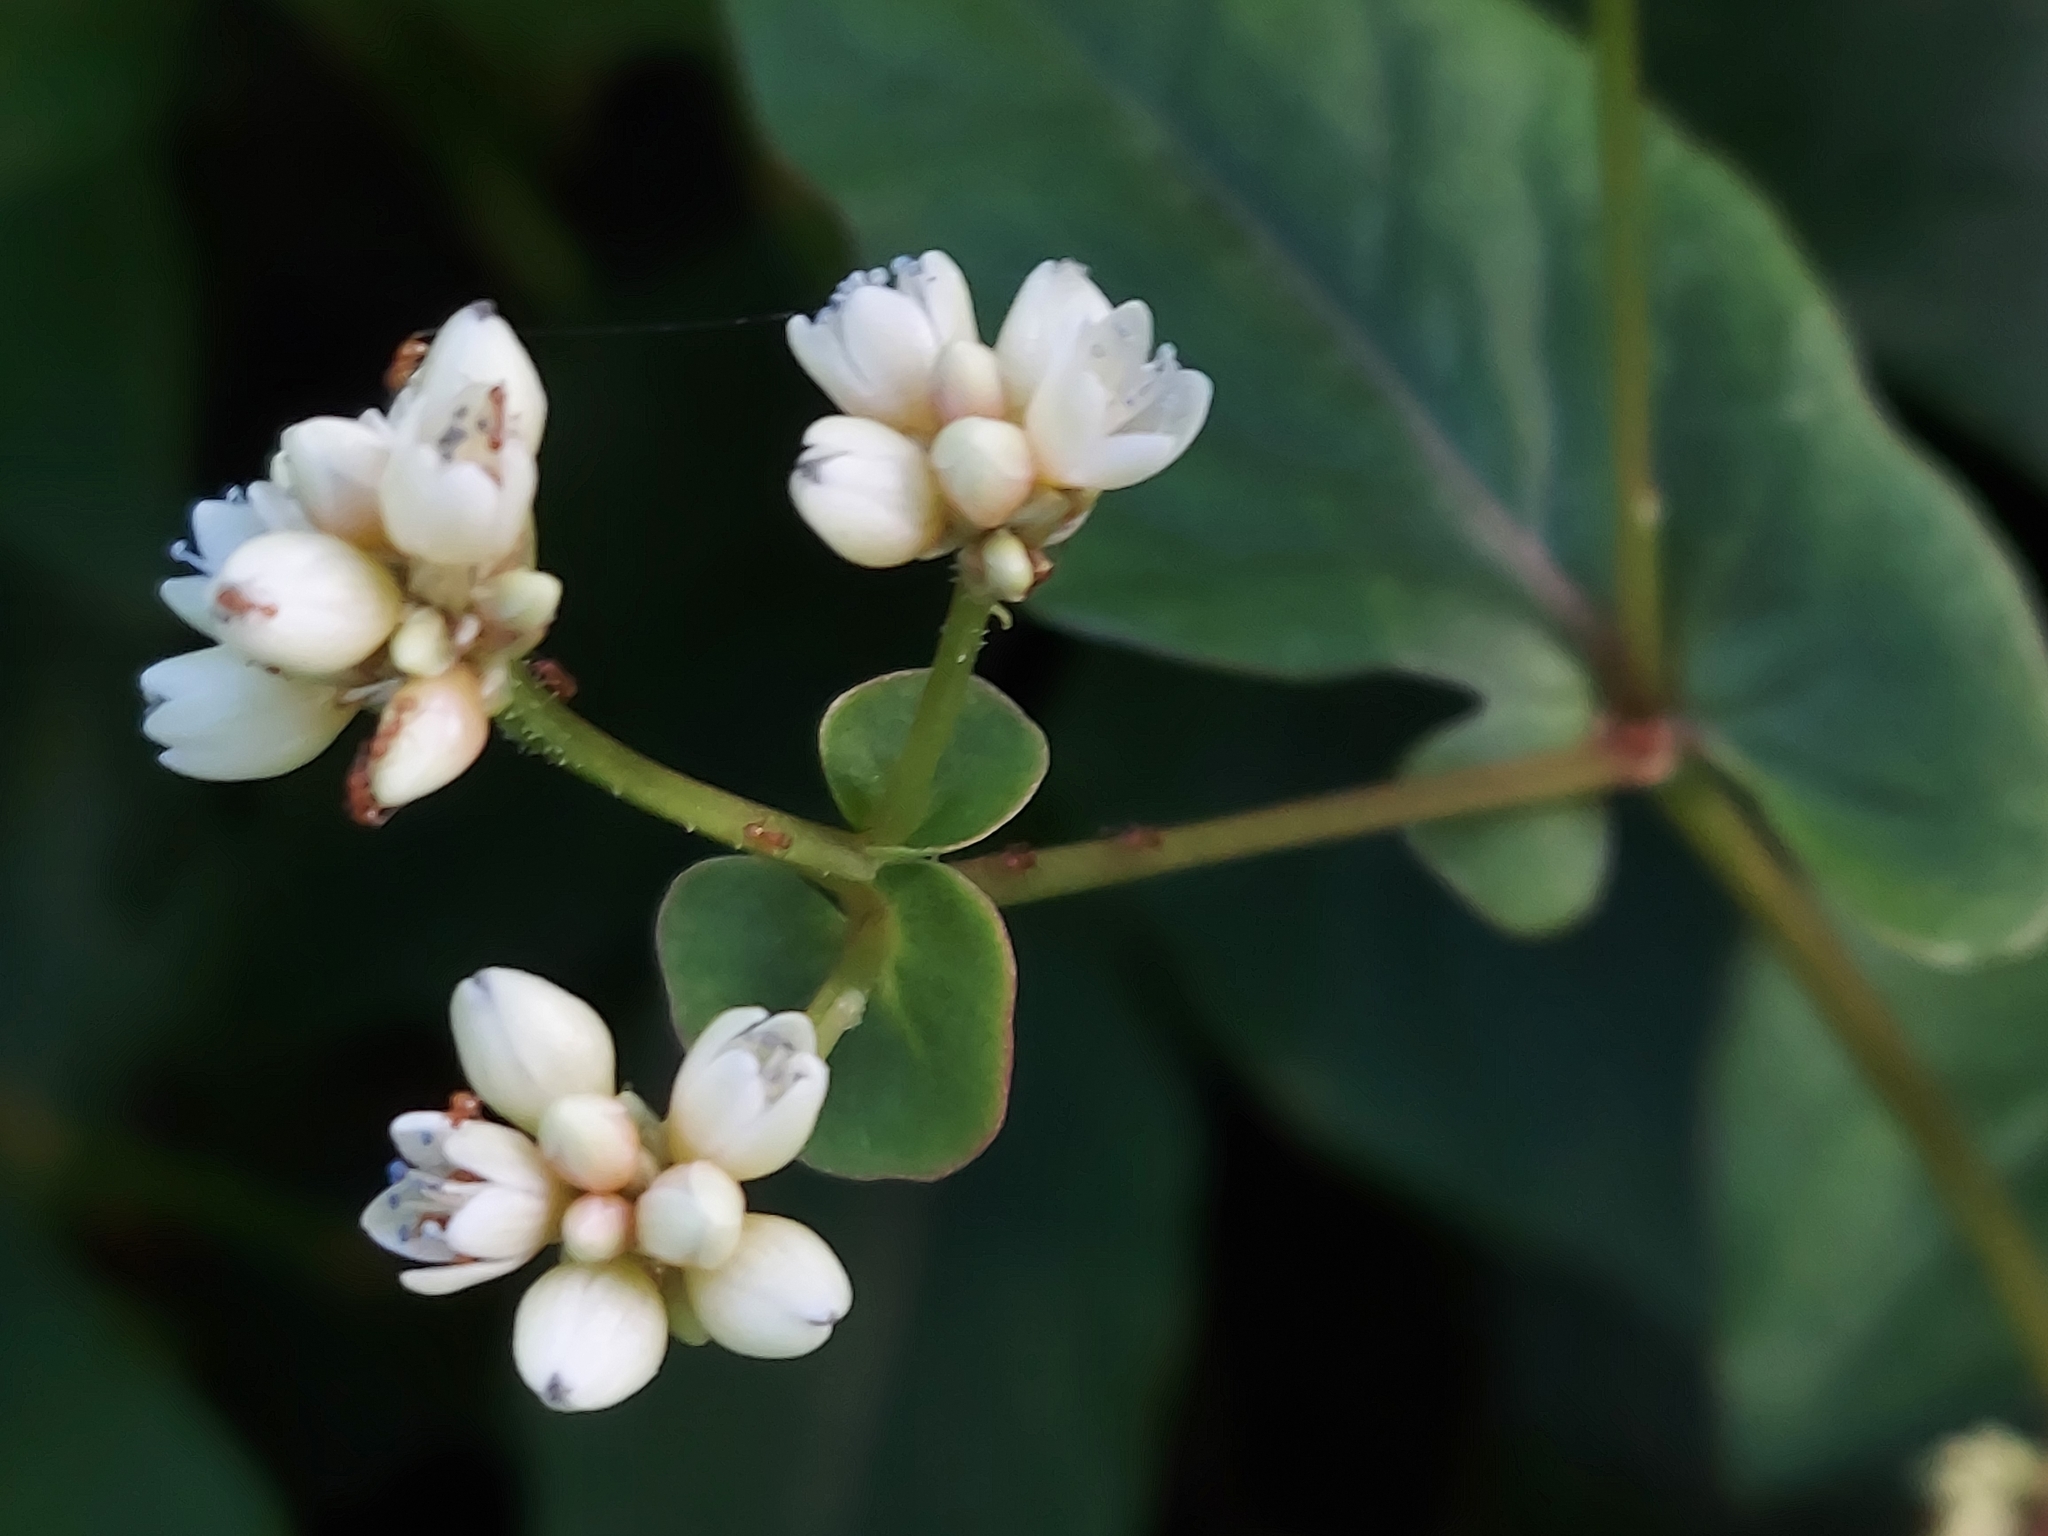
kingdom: Plantae
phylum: Tracheophyta
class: Magnoliopsida
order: Caryophyllales
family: Polygonaceae
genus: Persicaria
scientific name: Persicaria chinensis
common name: Chinese knotweed
